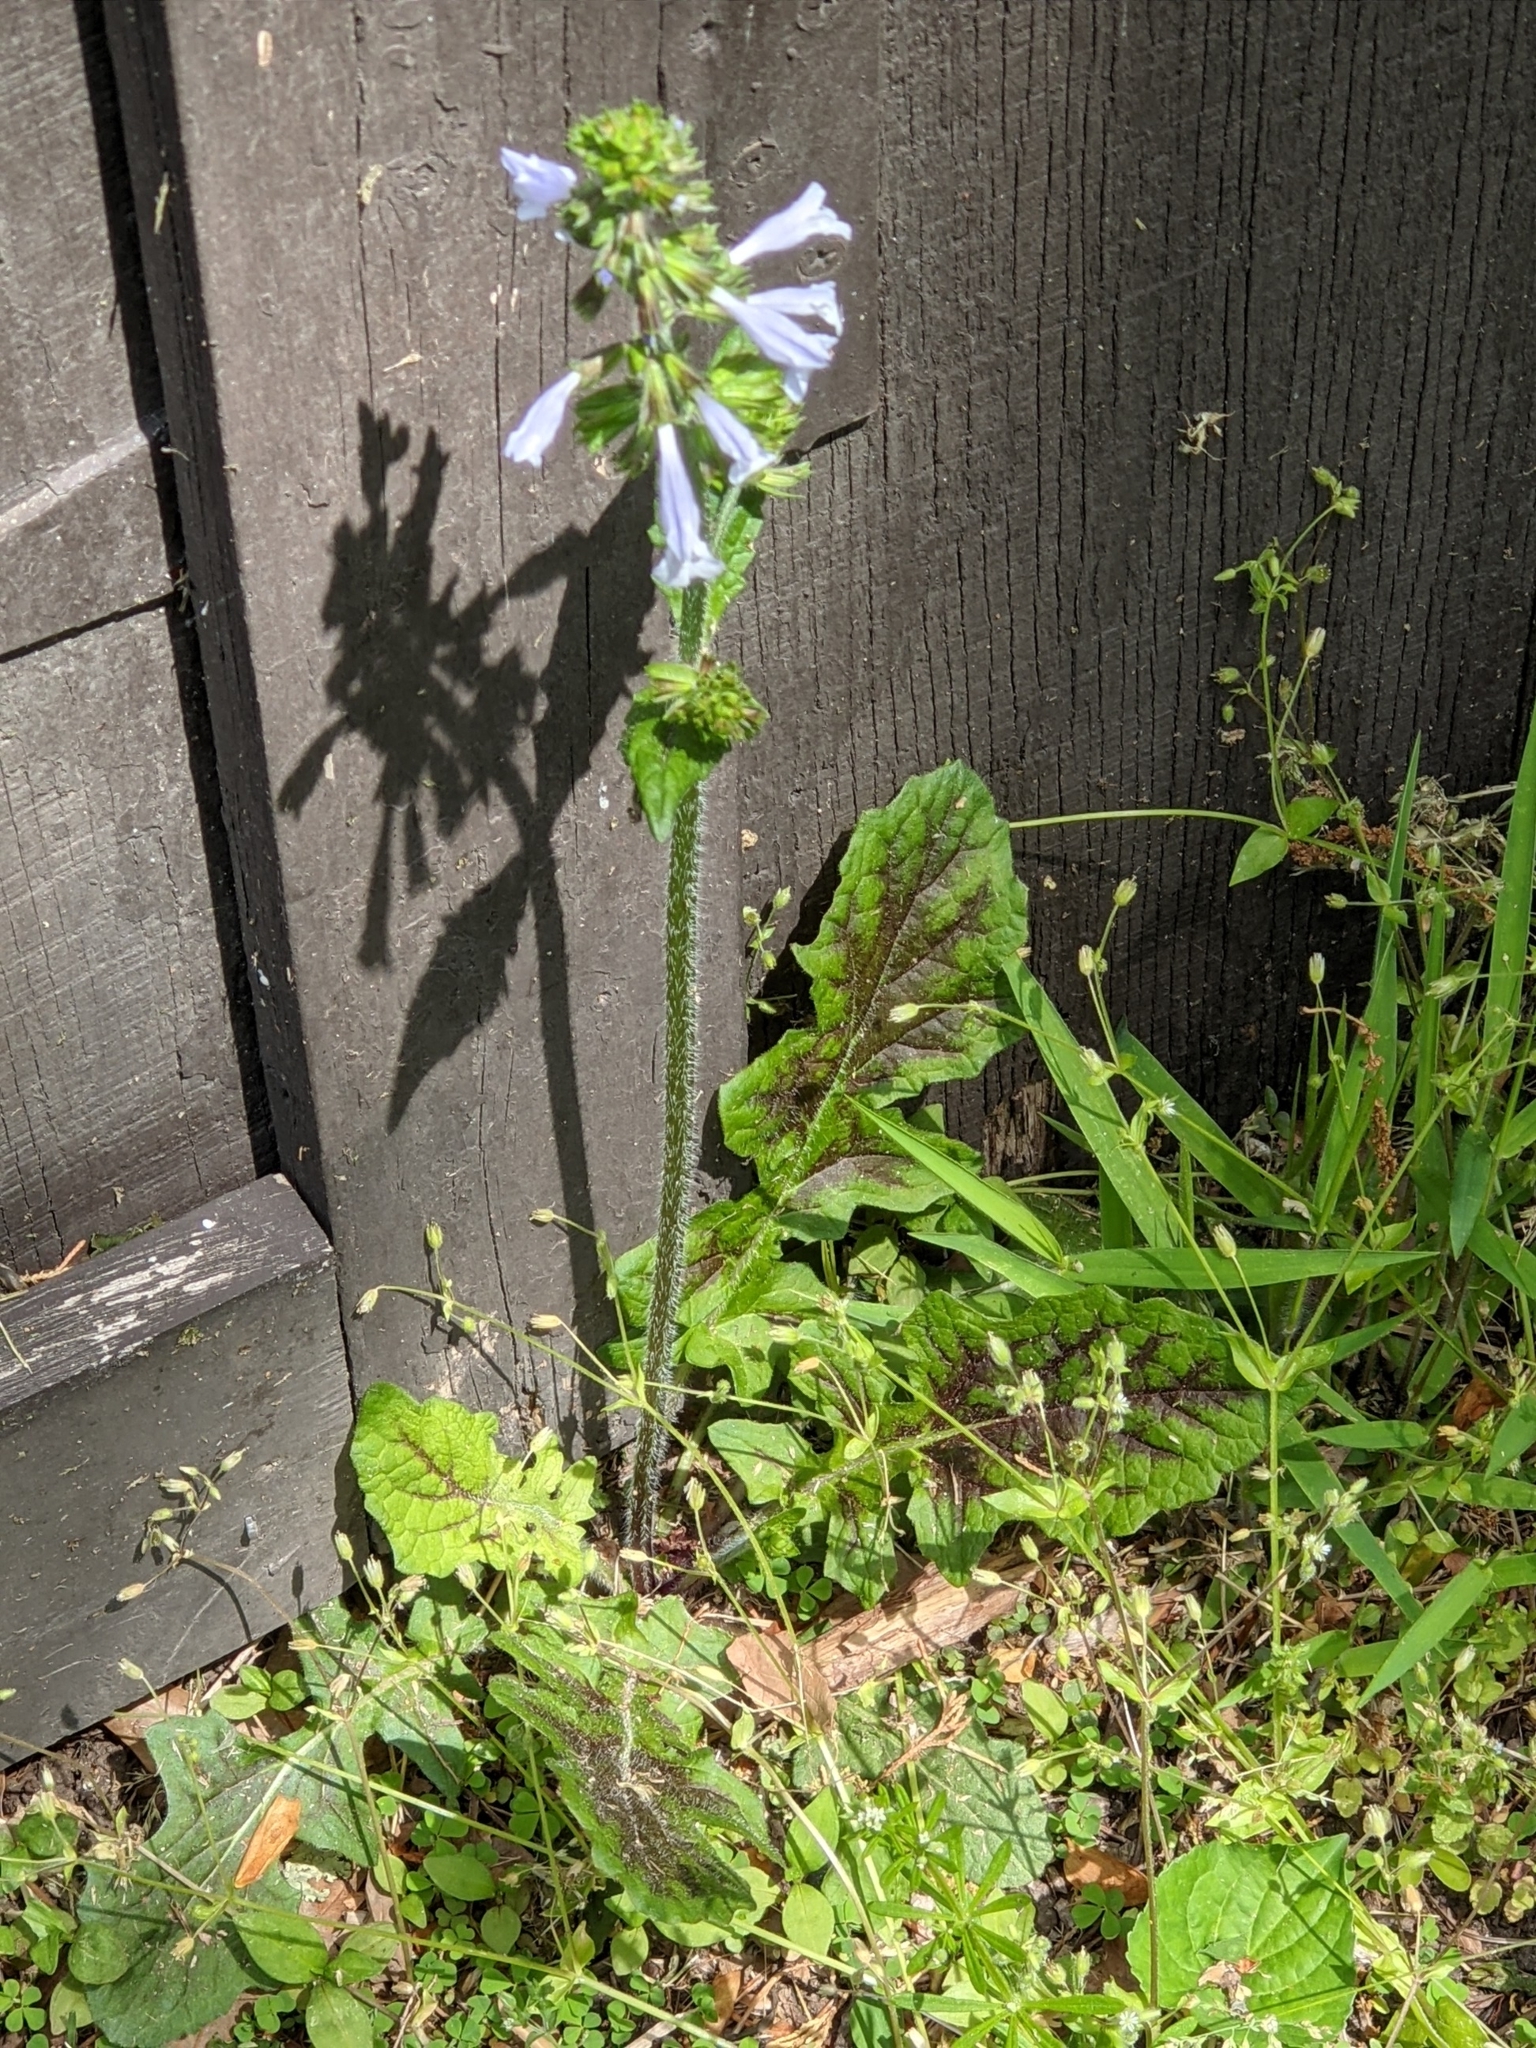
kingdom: Plantae
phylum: Tracheophyta
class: Magnoliopsida
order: Lamiales
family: Lamiaceae
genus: Salvia
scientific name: Salvia lyrata
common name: Cancerweed
